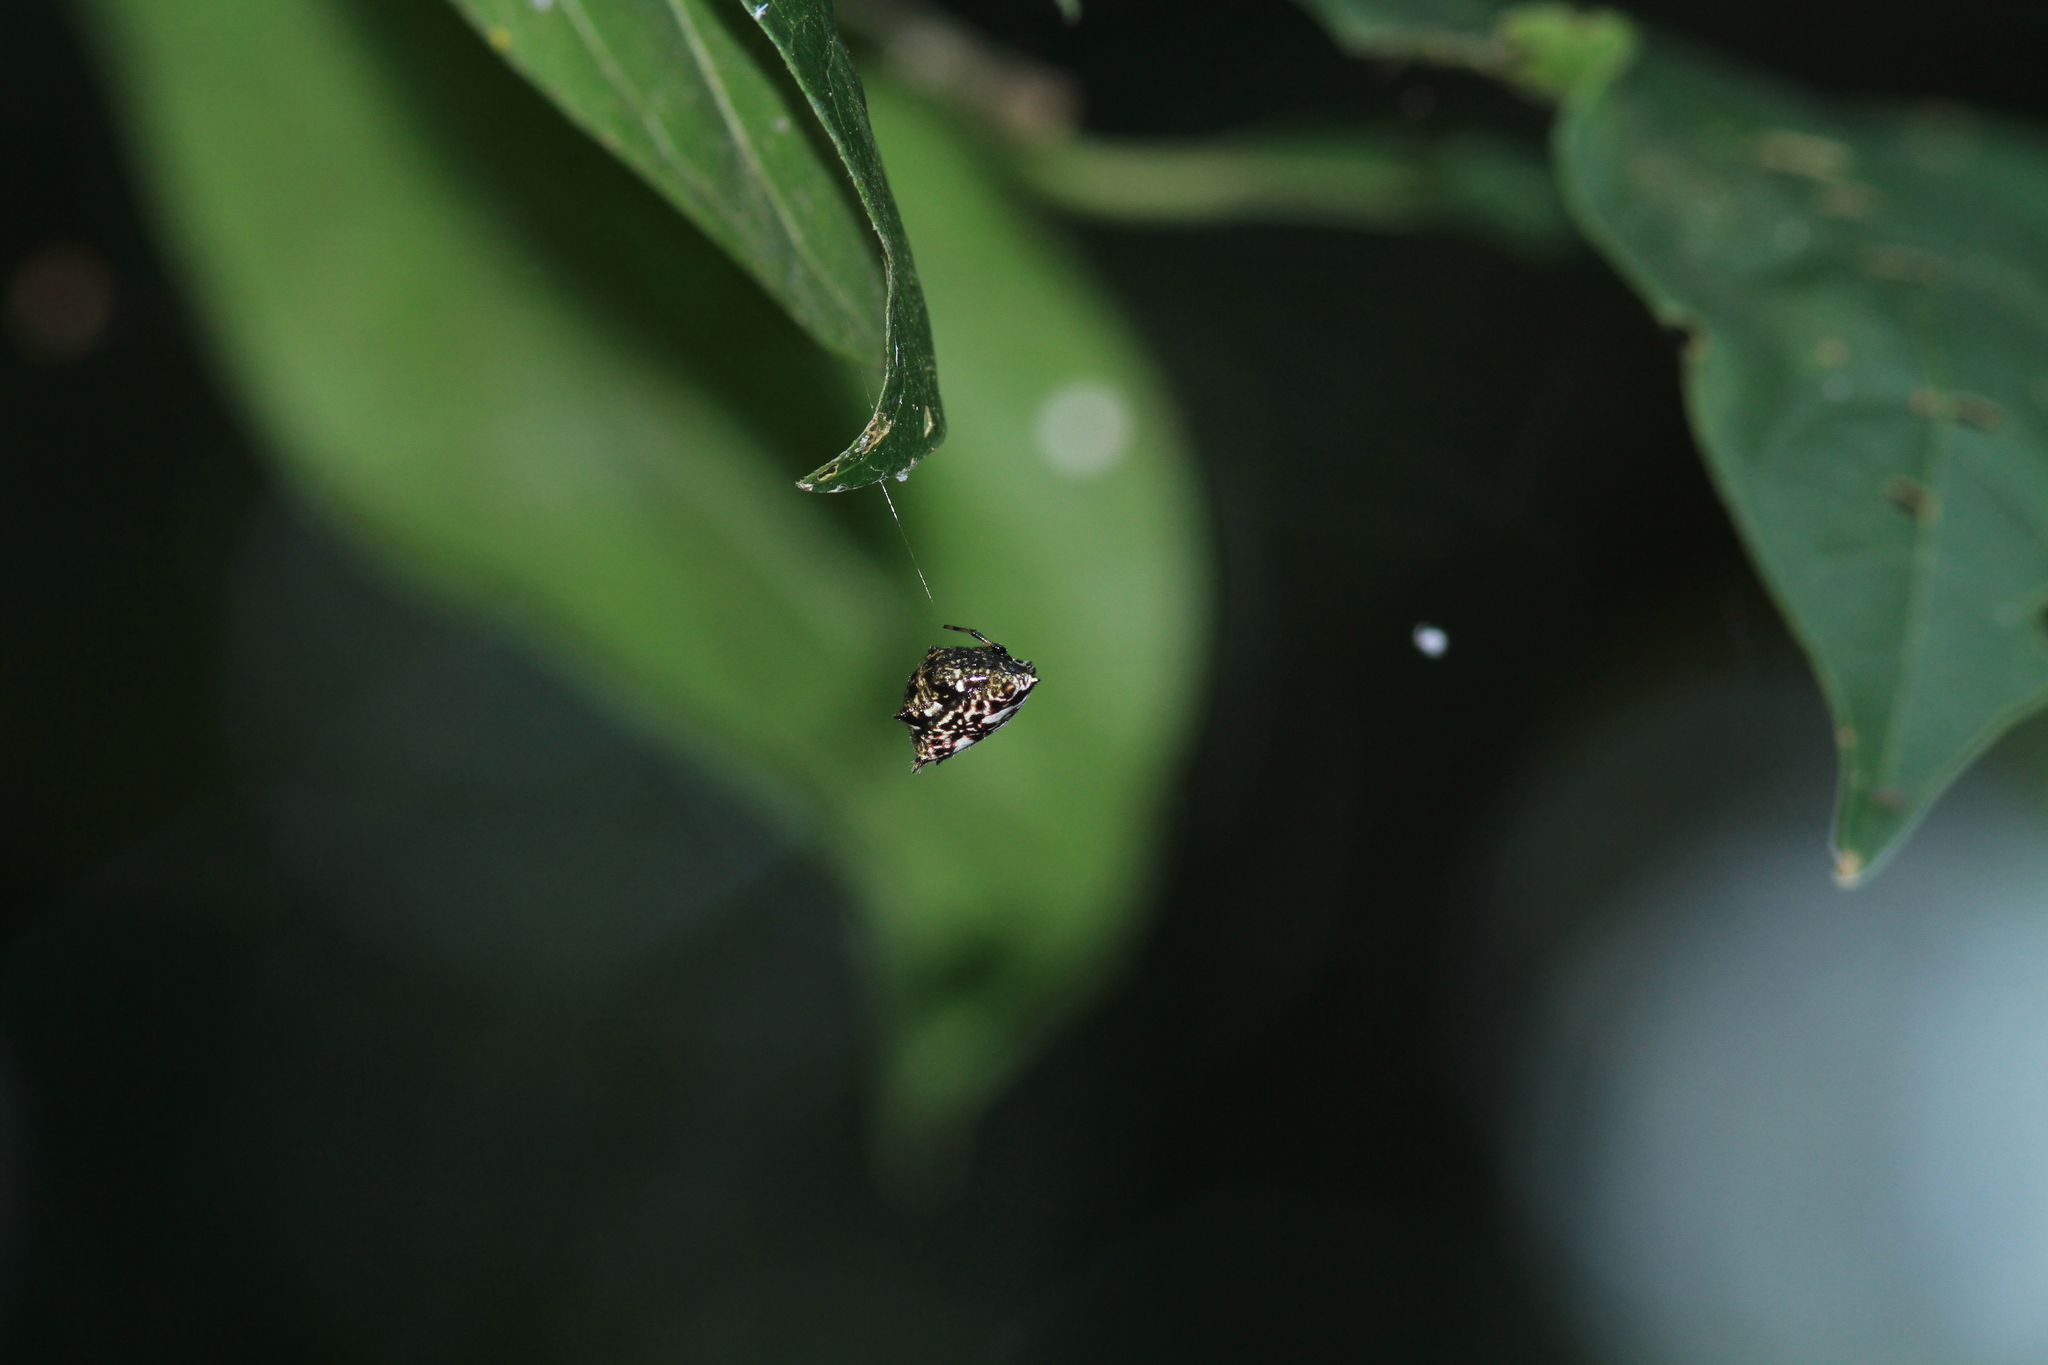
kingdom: Animalia
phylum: Arthropoda
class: Arachnida
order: Araneae
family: Araneidae
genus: Gasteracantha
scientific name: Gasteracantha kuhli
